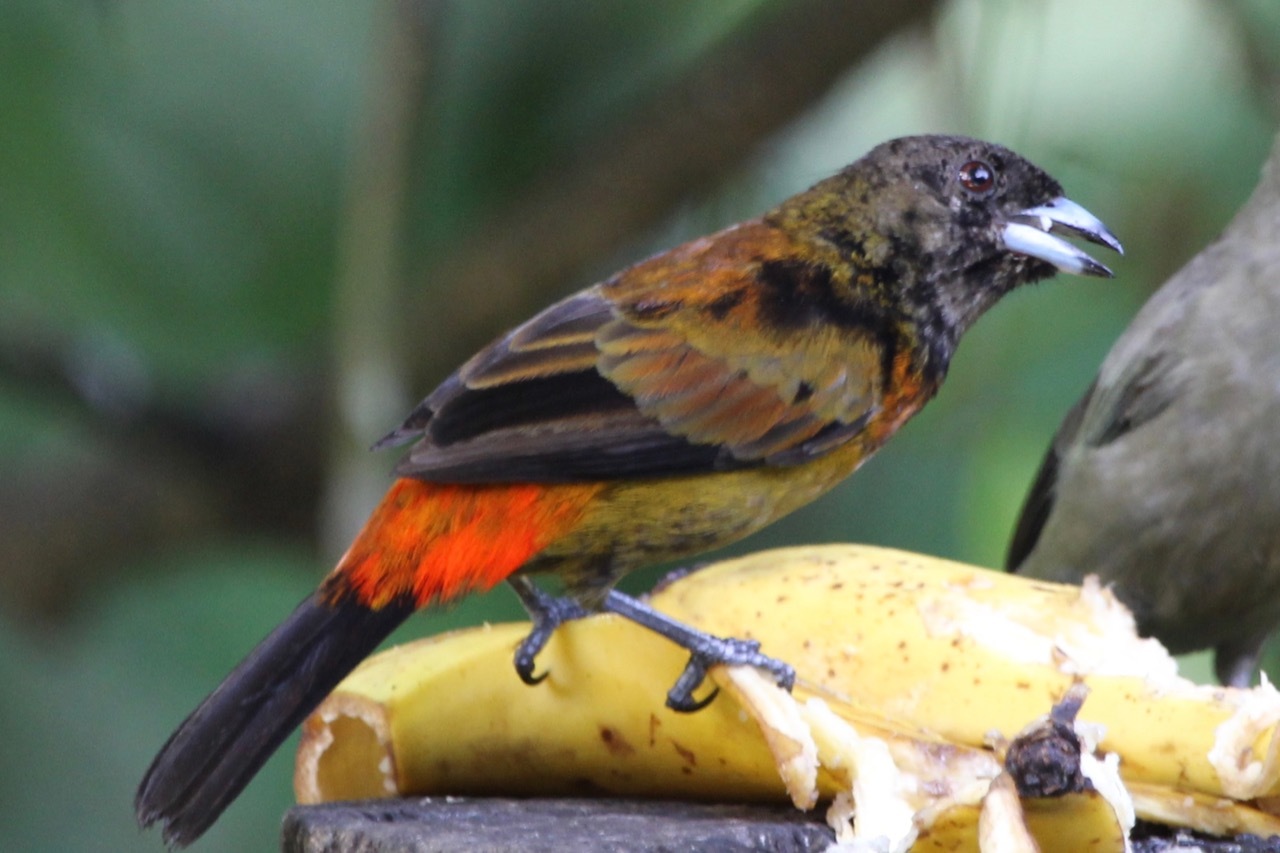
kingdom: Animalia
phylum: Chordata
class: Aves
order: Passeriformes
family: Thraupidae
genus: Ramphocelus
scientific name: Ramphocelus passerinii
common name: Passerini's tanager
